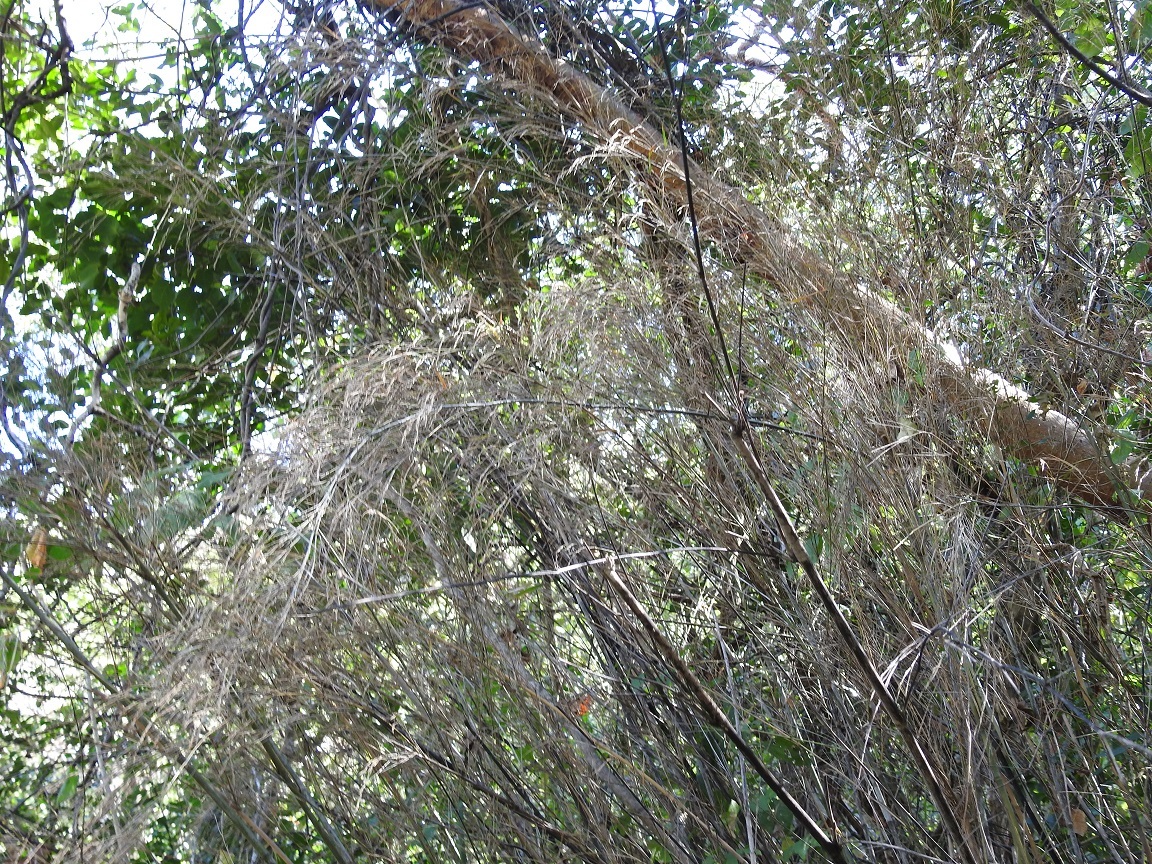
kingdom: Plantae
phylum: Tracheophyta
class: Liliopsida
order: Poales
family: Poaceae
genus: Otatea
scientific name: Otatea rzedowskiorum
